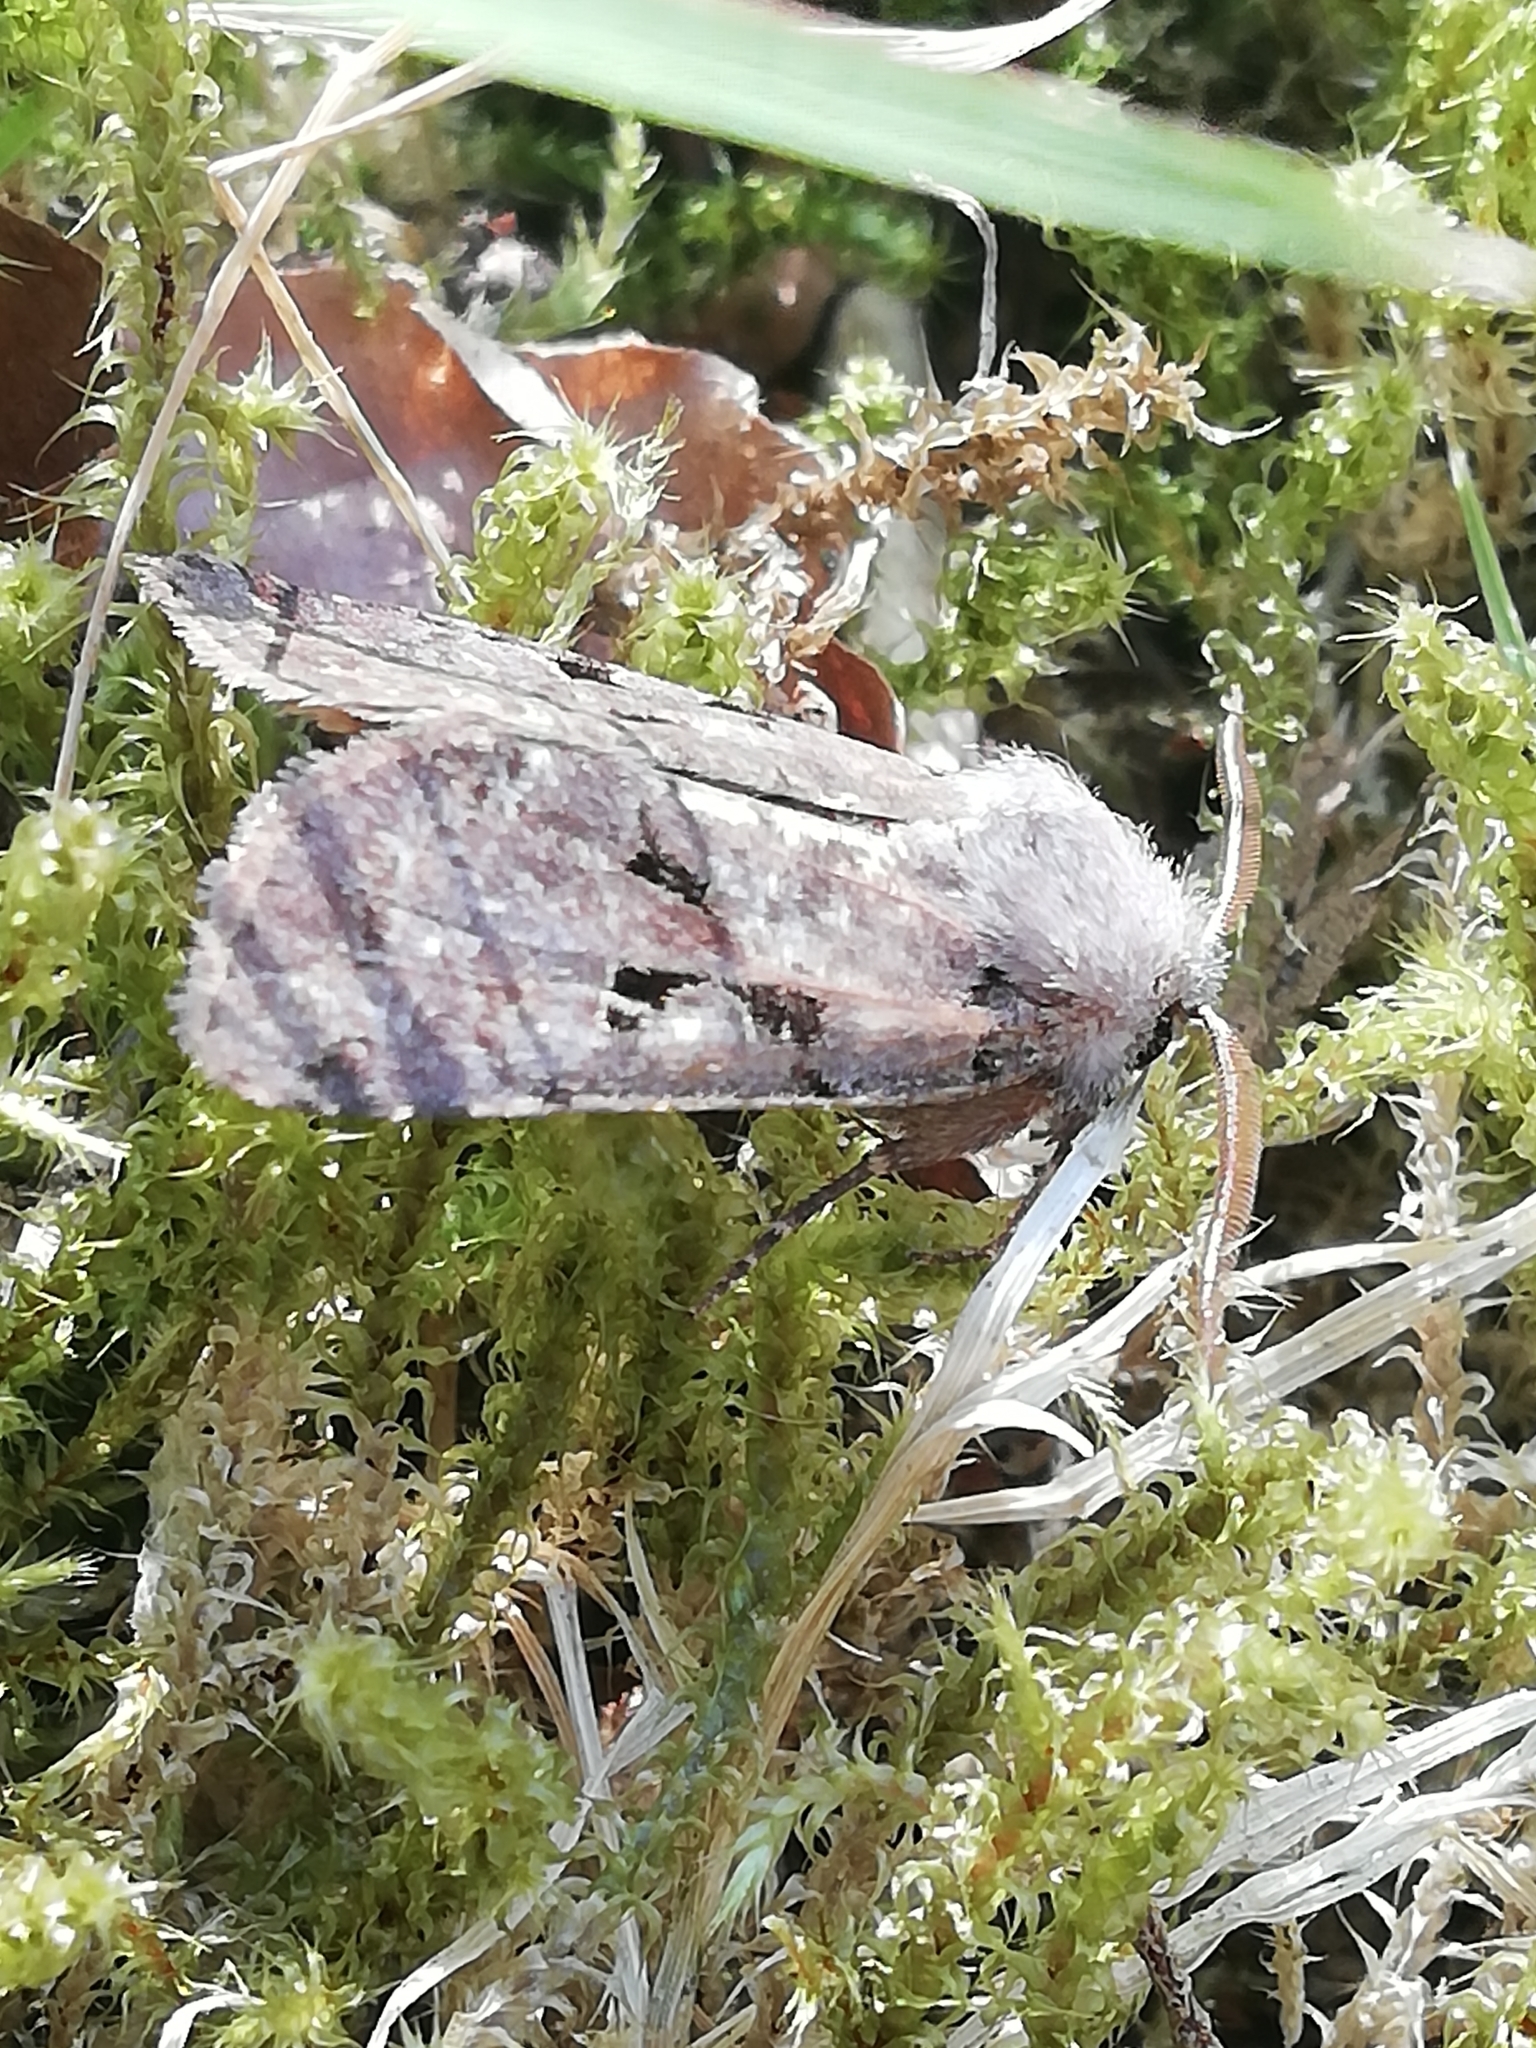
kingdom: Animalia
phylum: Arthropoda
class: Insecta
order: Lepidoptera
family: Noctuidae
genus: Orthosia
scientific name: Orthosia gothica
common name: Hebrew character
